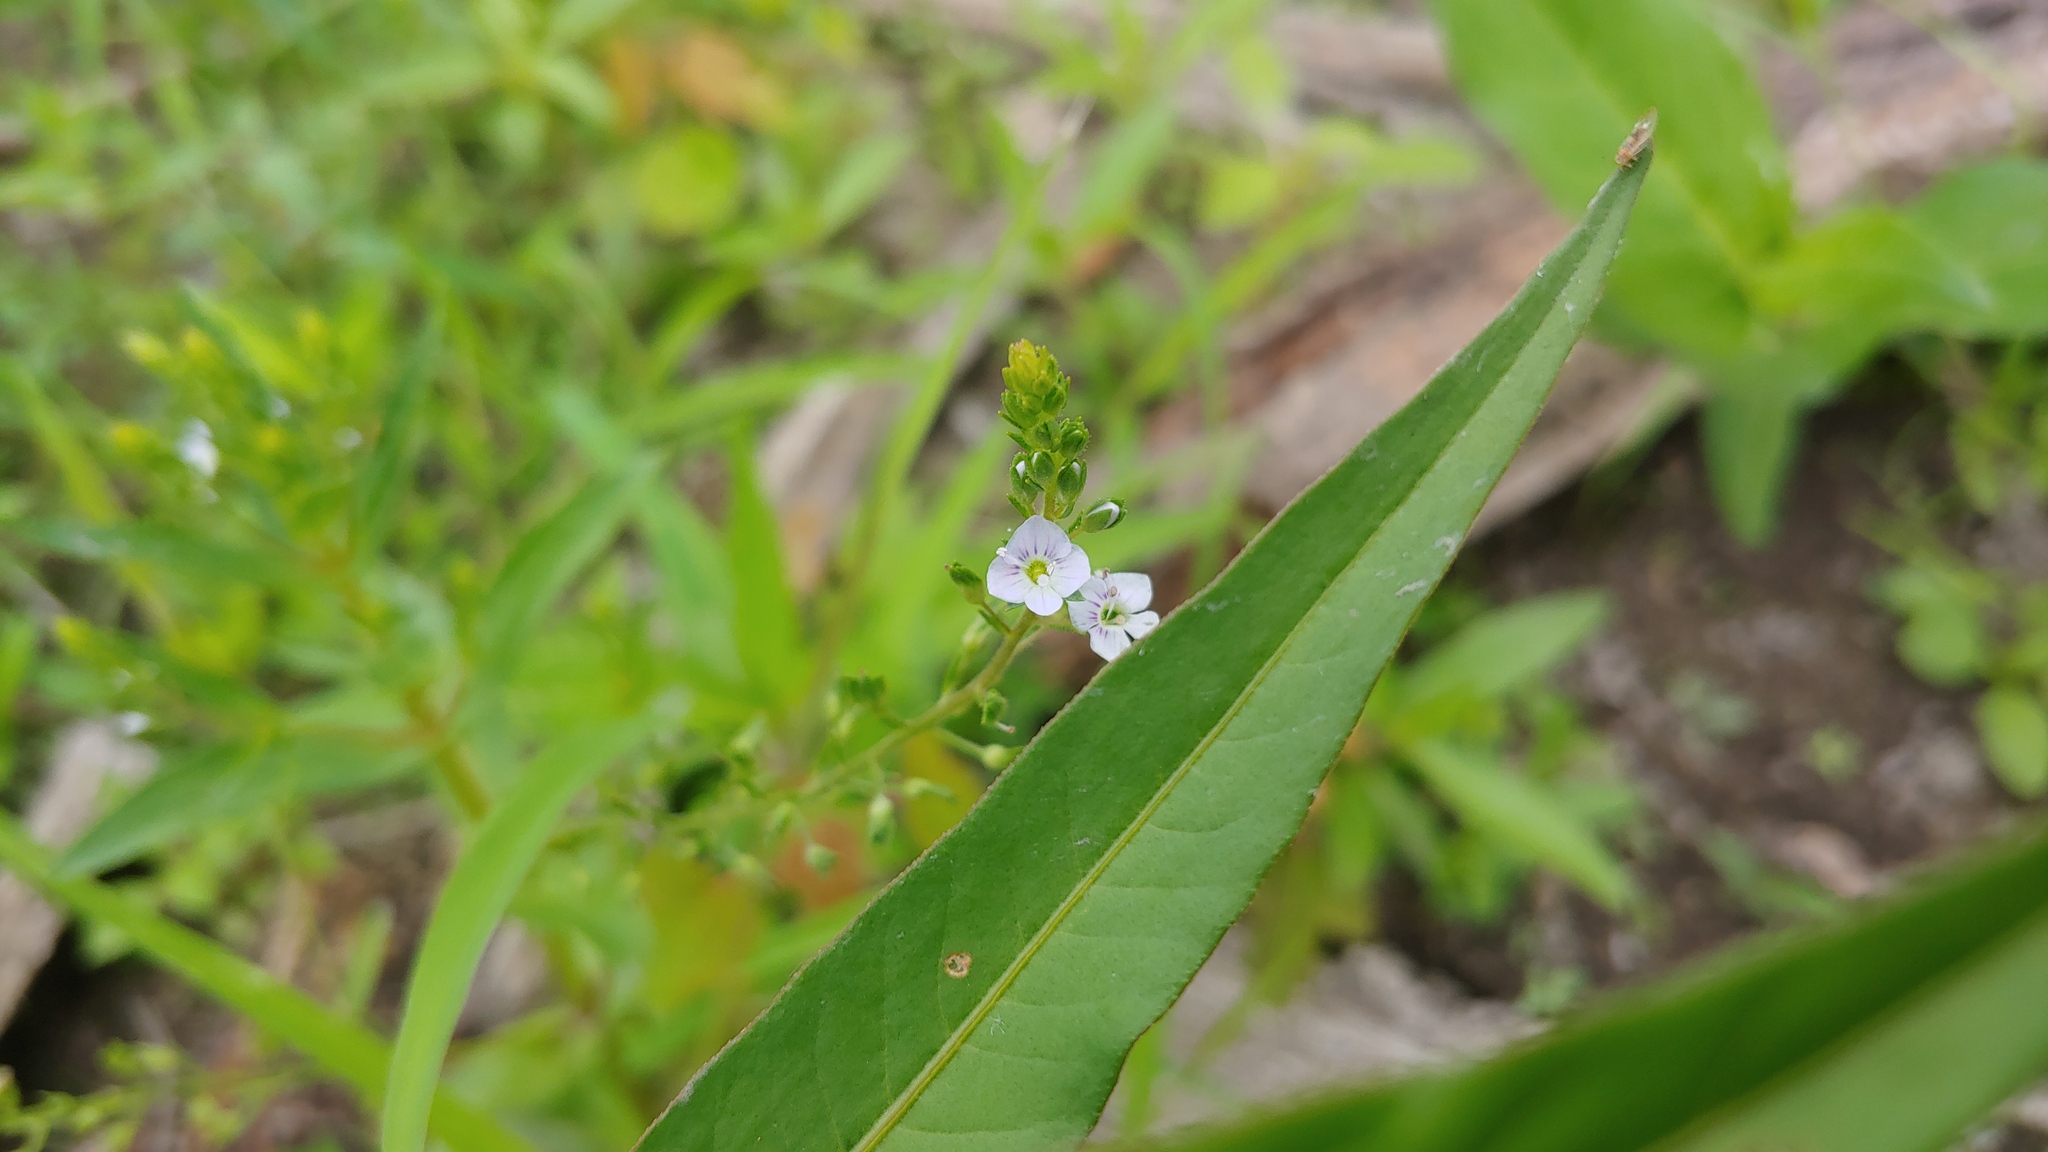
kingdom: Plantae
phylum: Tracheophyta
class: Magnoliopsida
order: Lamiales
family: Plantaginaceae
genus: Veronica
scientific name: Veronica catenata
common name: Pink water-speedwell
